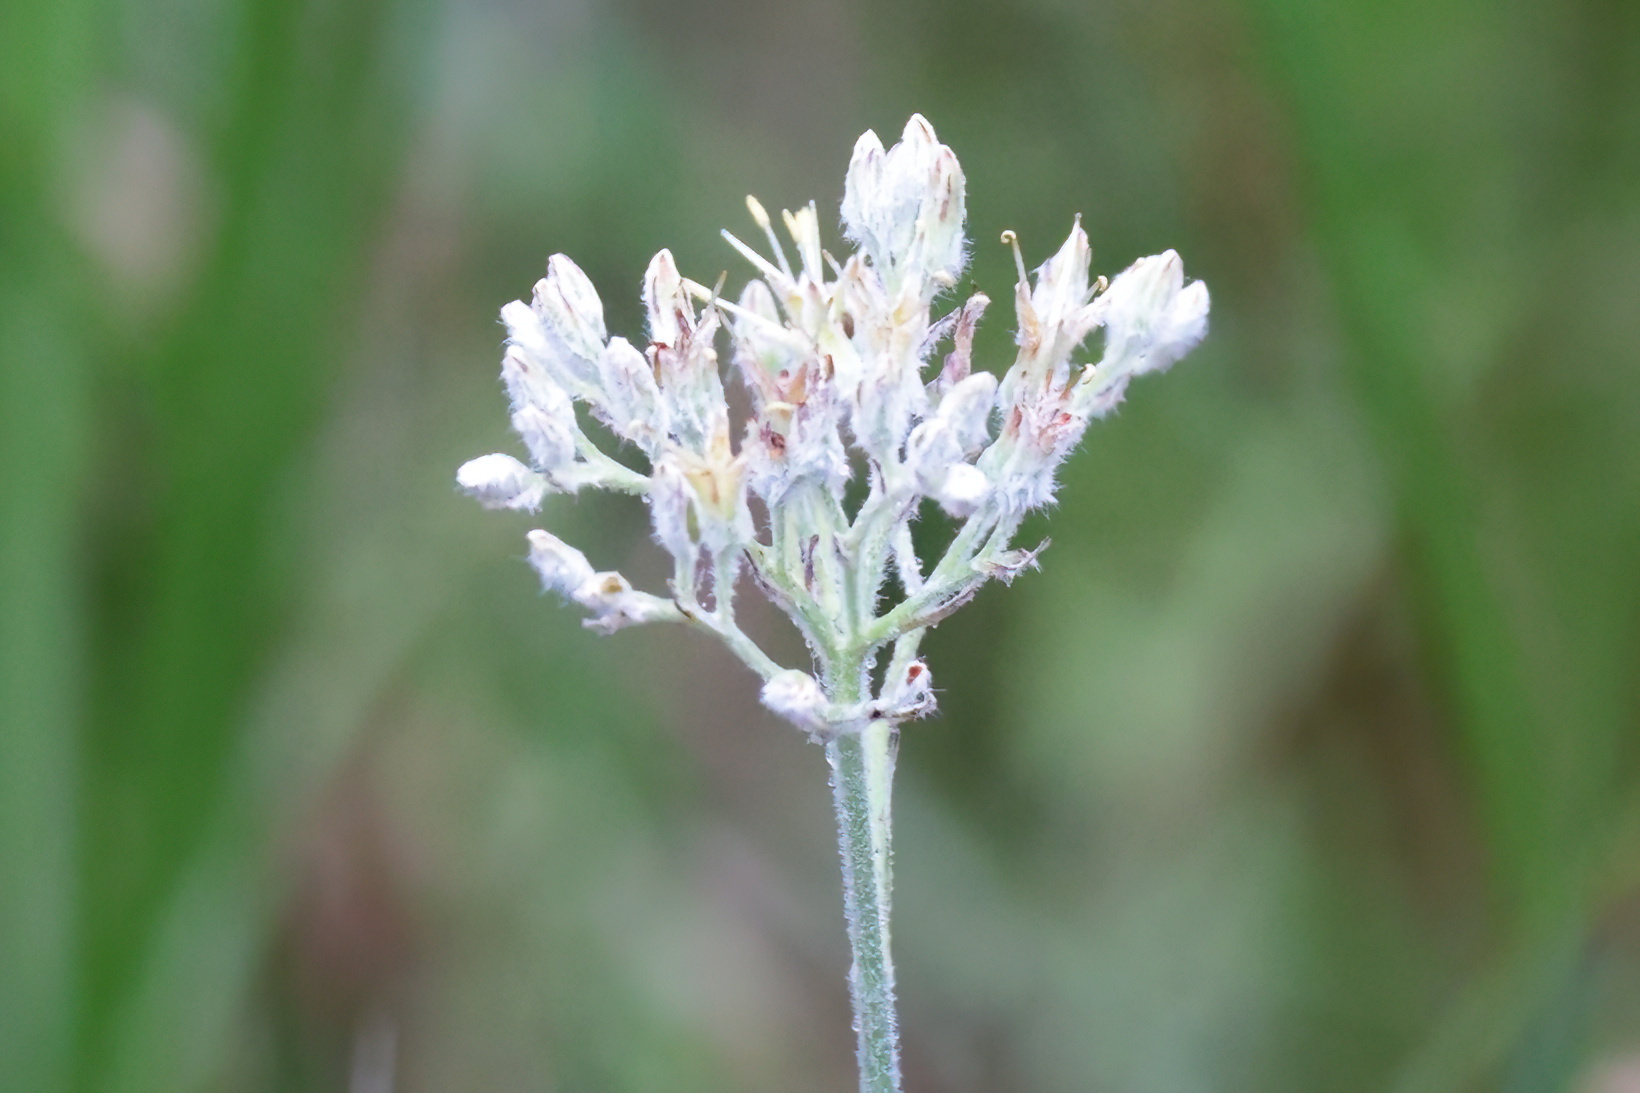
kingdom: Plantae
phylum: Tracheophyta
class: Liliopsida
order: Commelinales
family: Haemodoraceae
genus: Lachnanthes
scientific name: Lachnanthes caroliana
